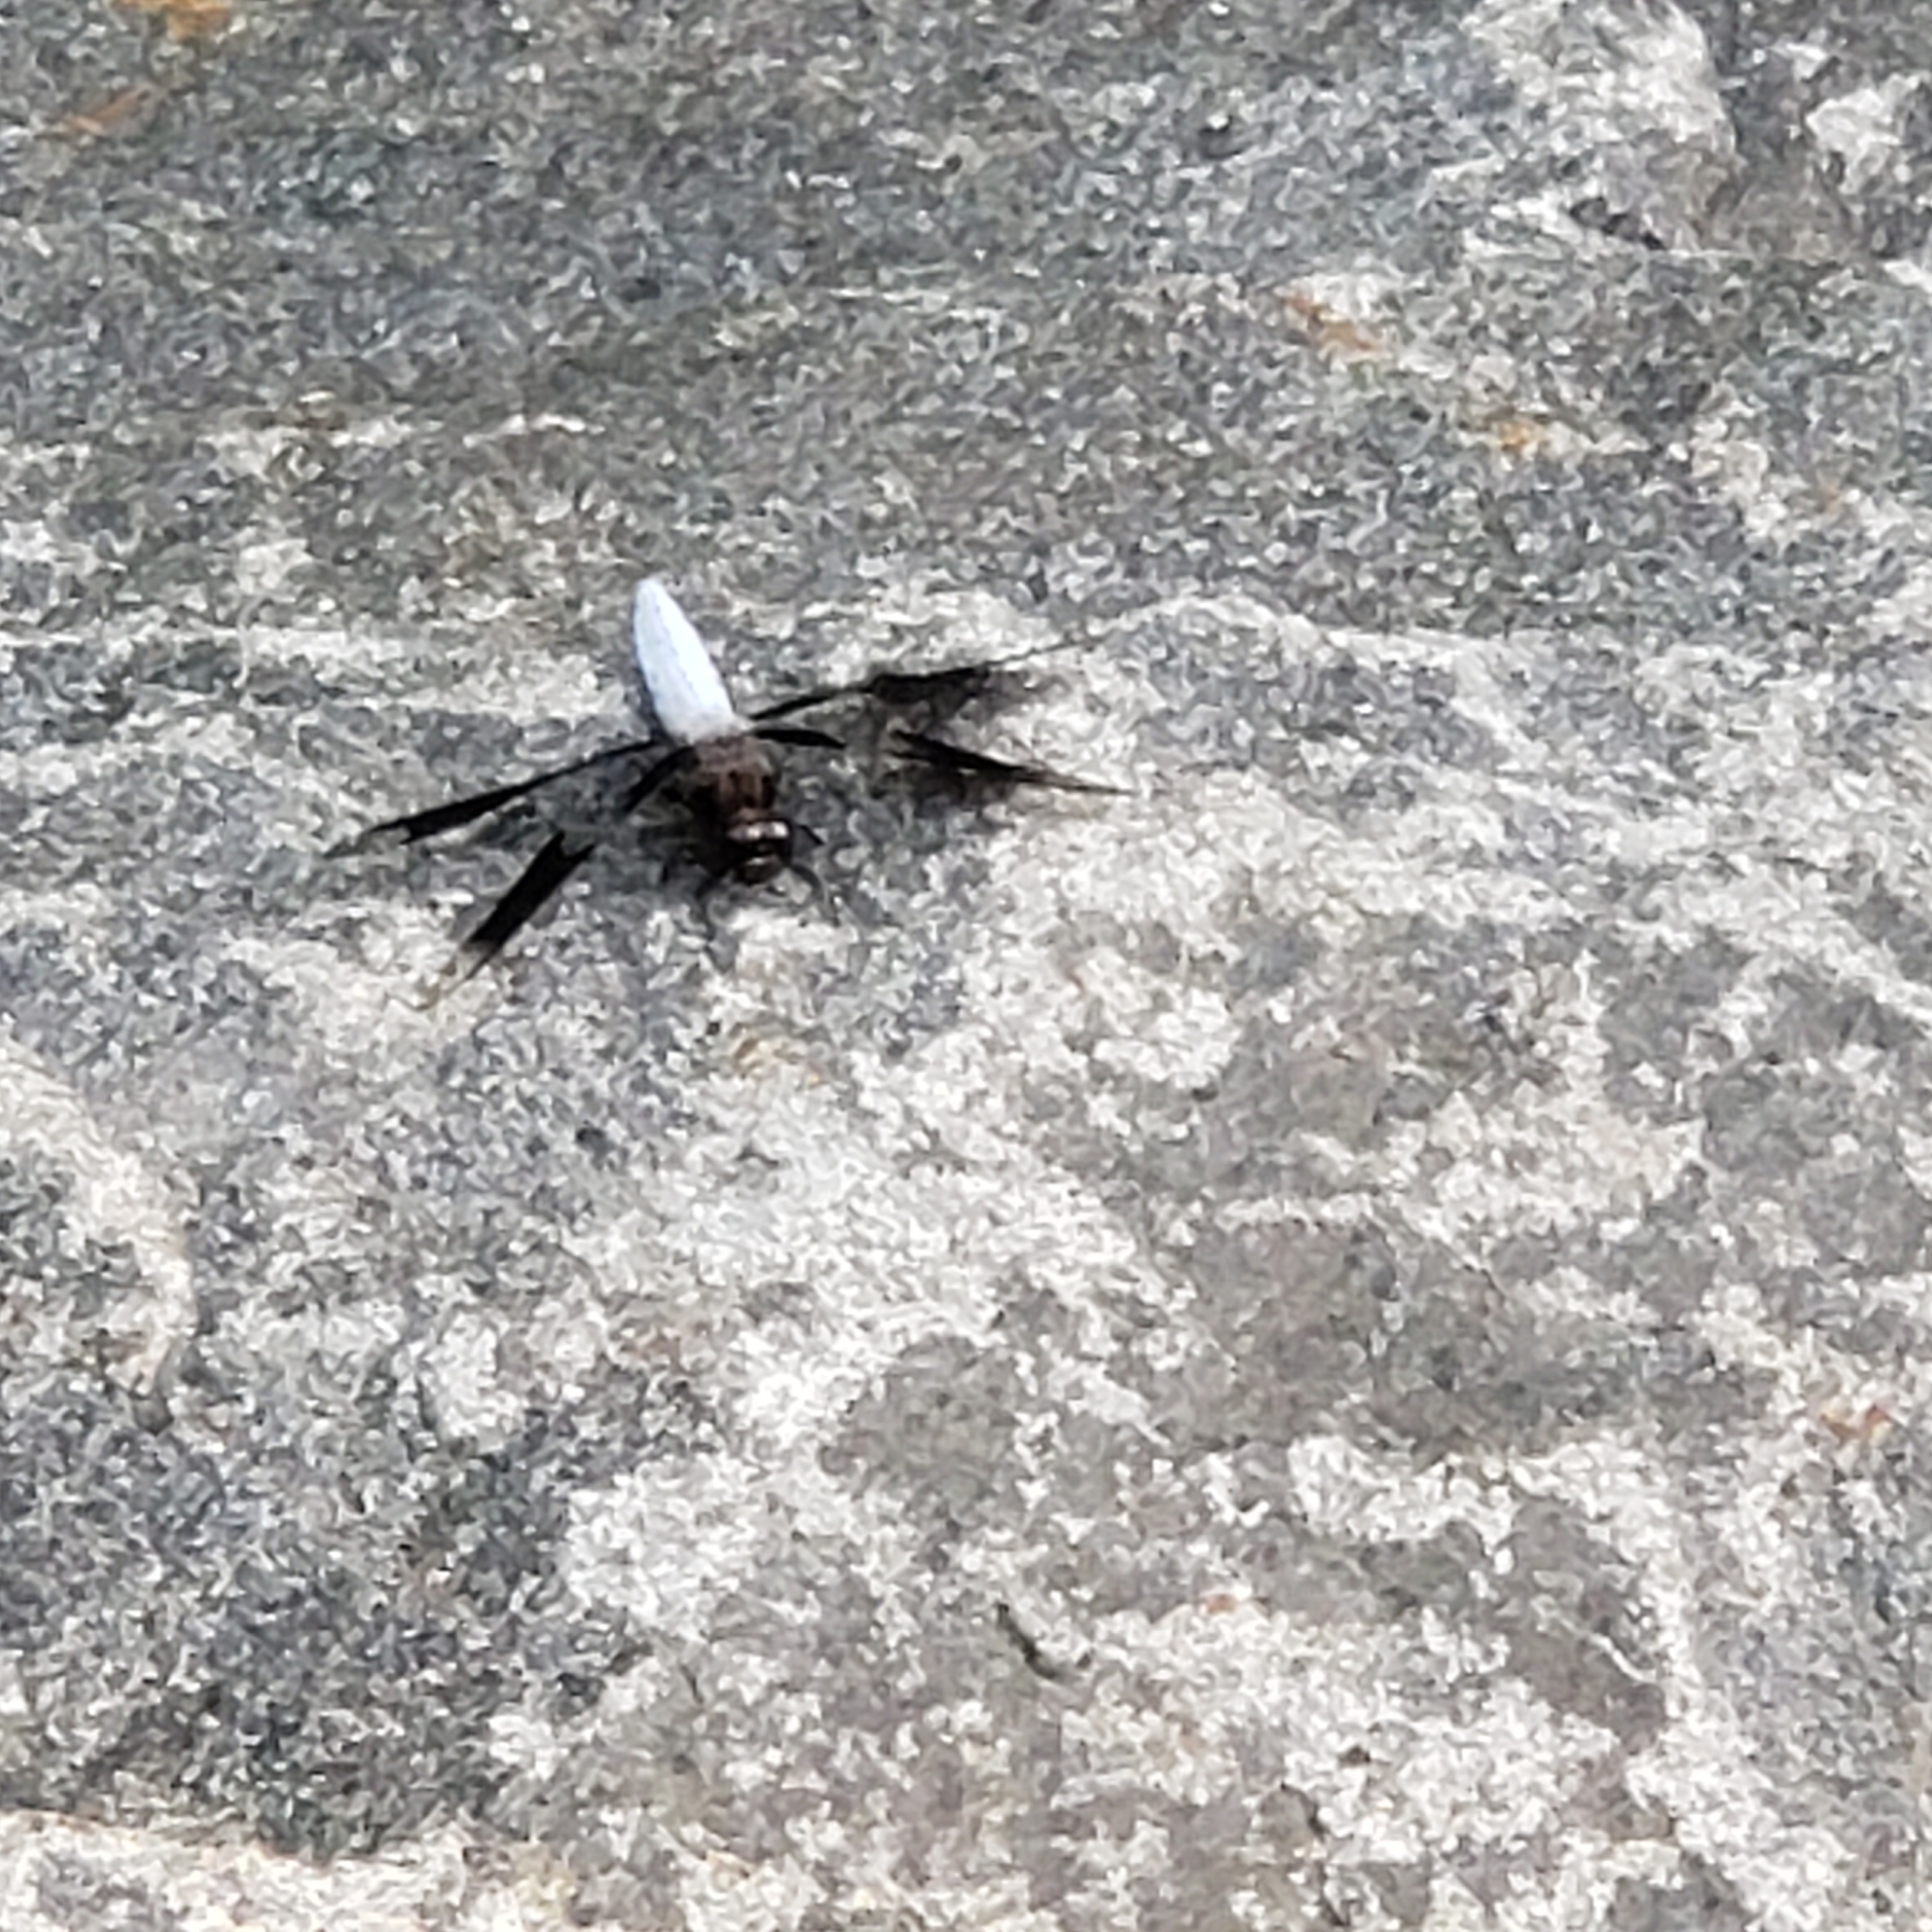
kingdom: Animalia
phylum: Arthropoda
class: Insecta
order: Odonata
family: Libellulidae
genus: Plathemis
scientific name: Plathemis lydia
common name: Common whitetail
